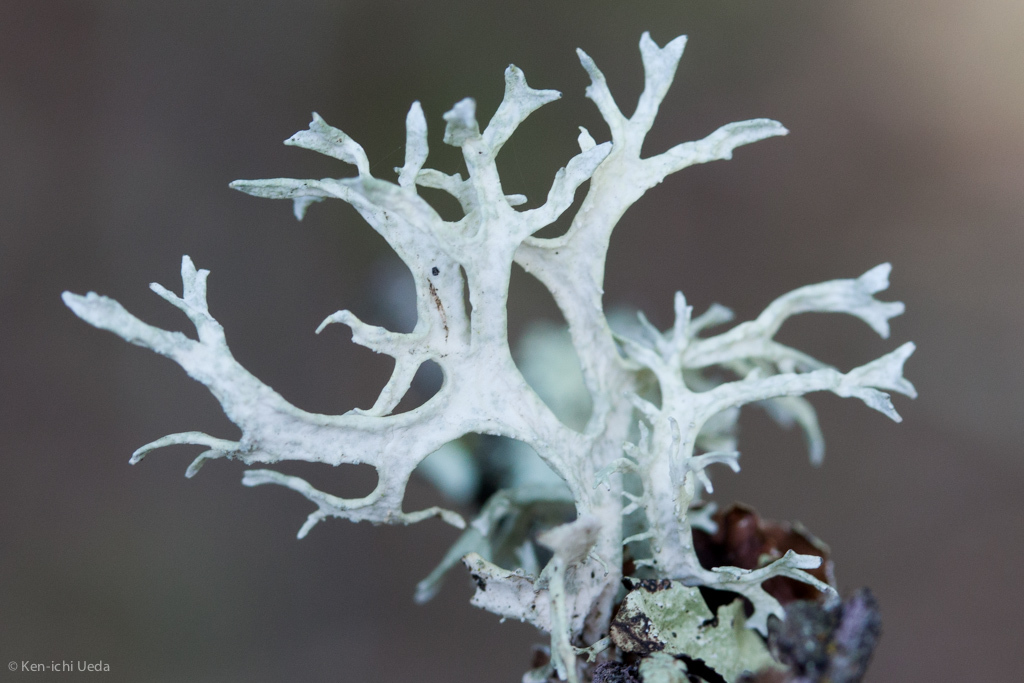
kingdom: Fungi
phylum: Ascomycota
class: Lecanoromycetes
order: Lecanorales
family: Parmeliaceae
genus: Evernia
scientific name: Evernia prunastri
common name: Oak moss
